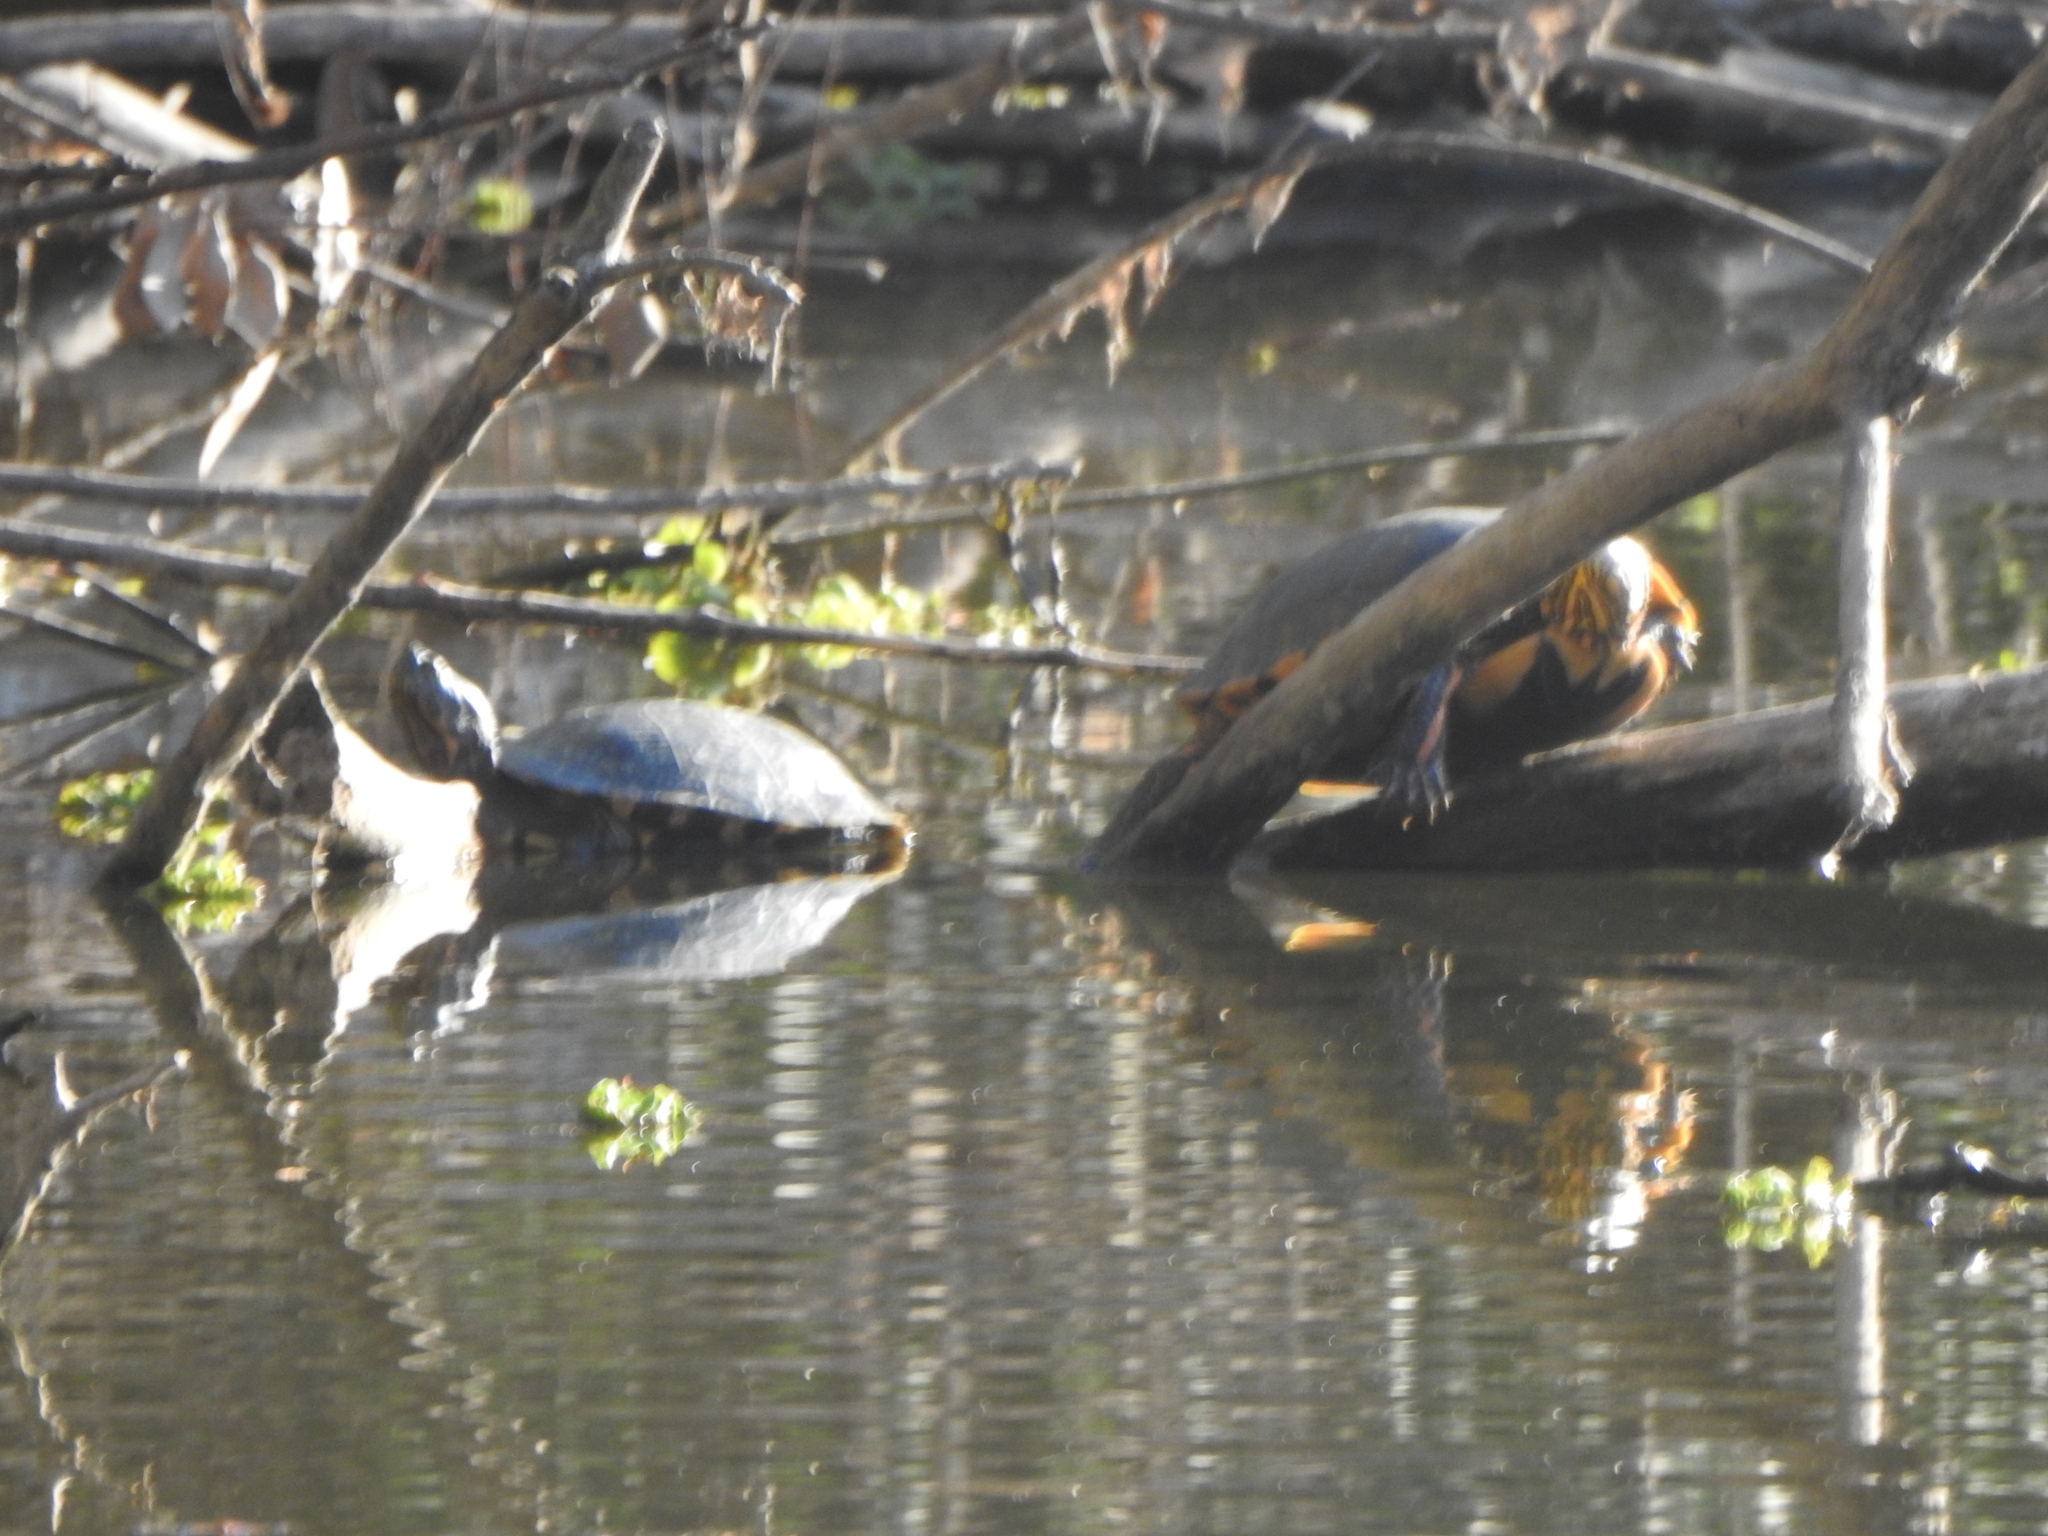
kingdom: Animalia
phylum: Chordata
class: Testudines
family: Emydidae
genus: Trachemys
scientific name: Trachemys dorbigni
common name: Black-bellied slider
